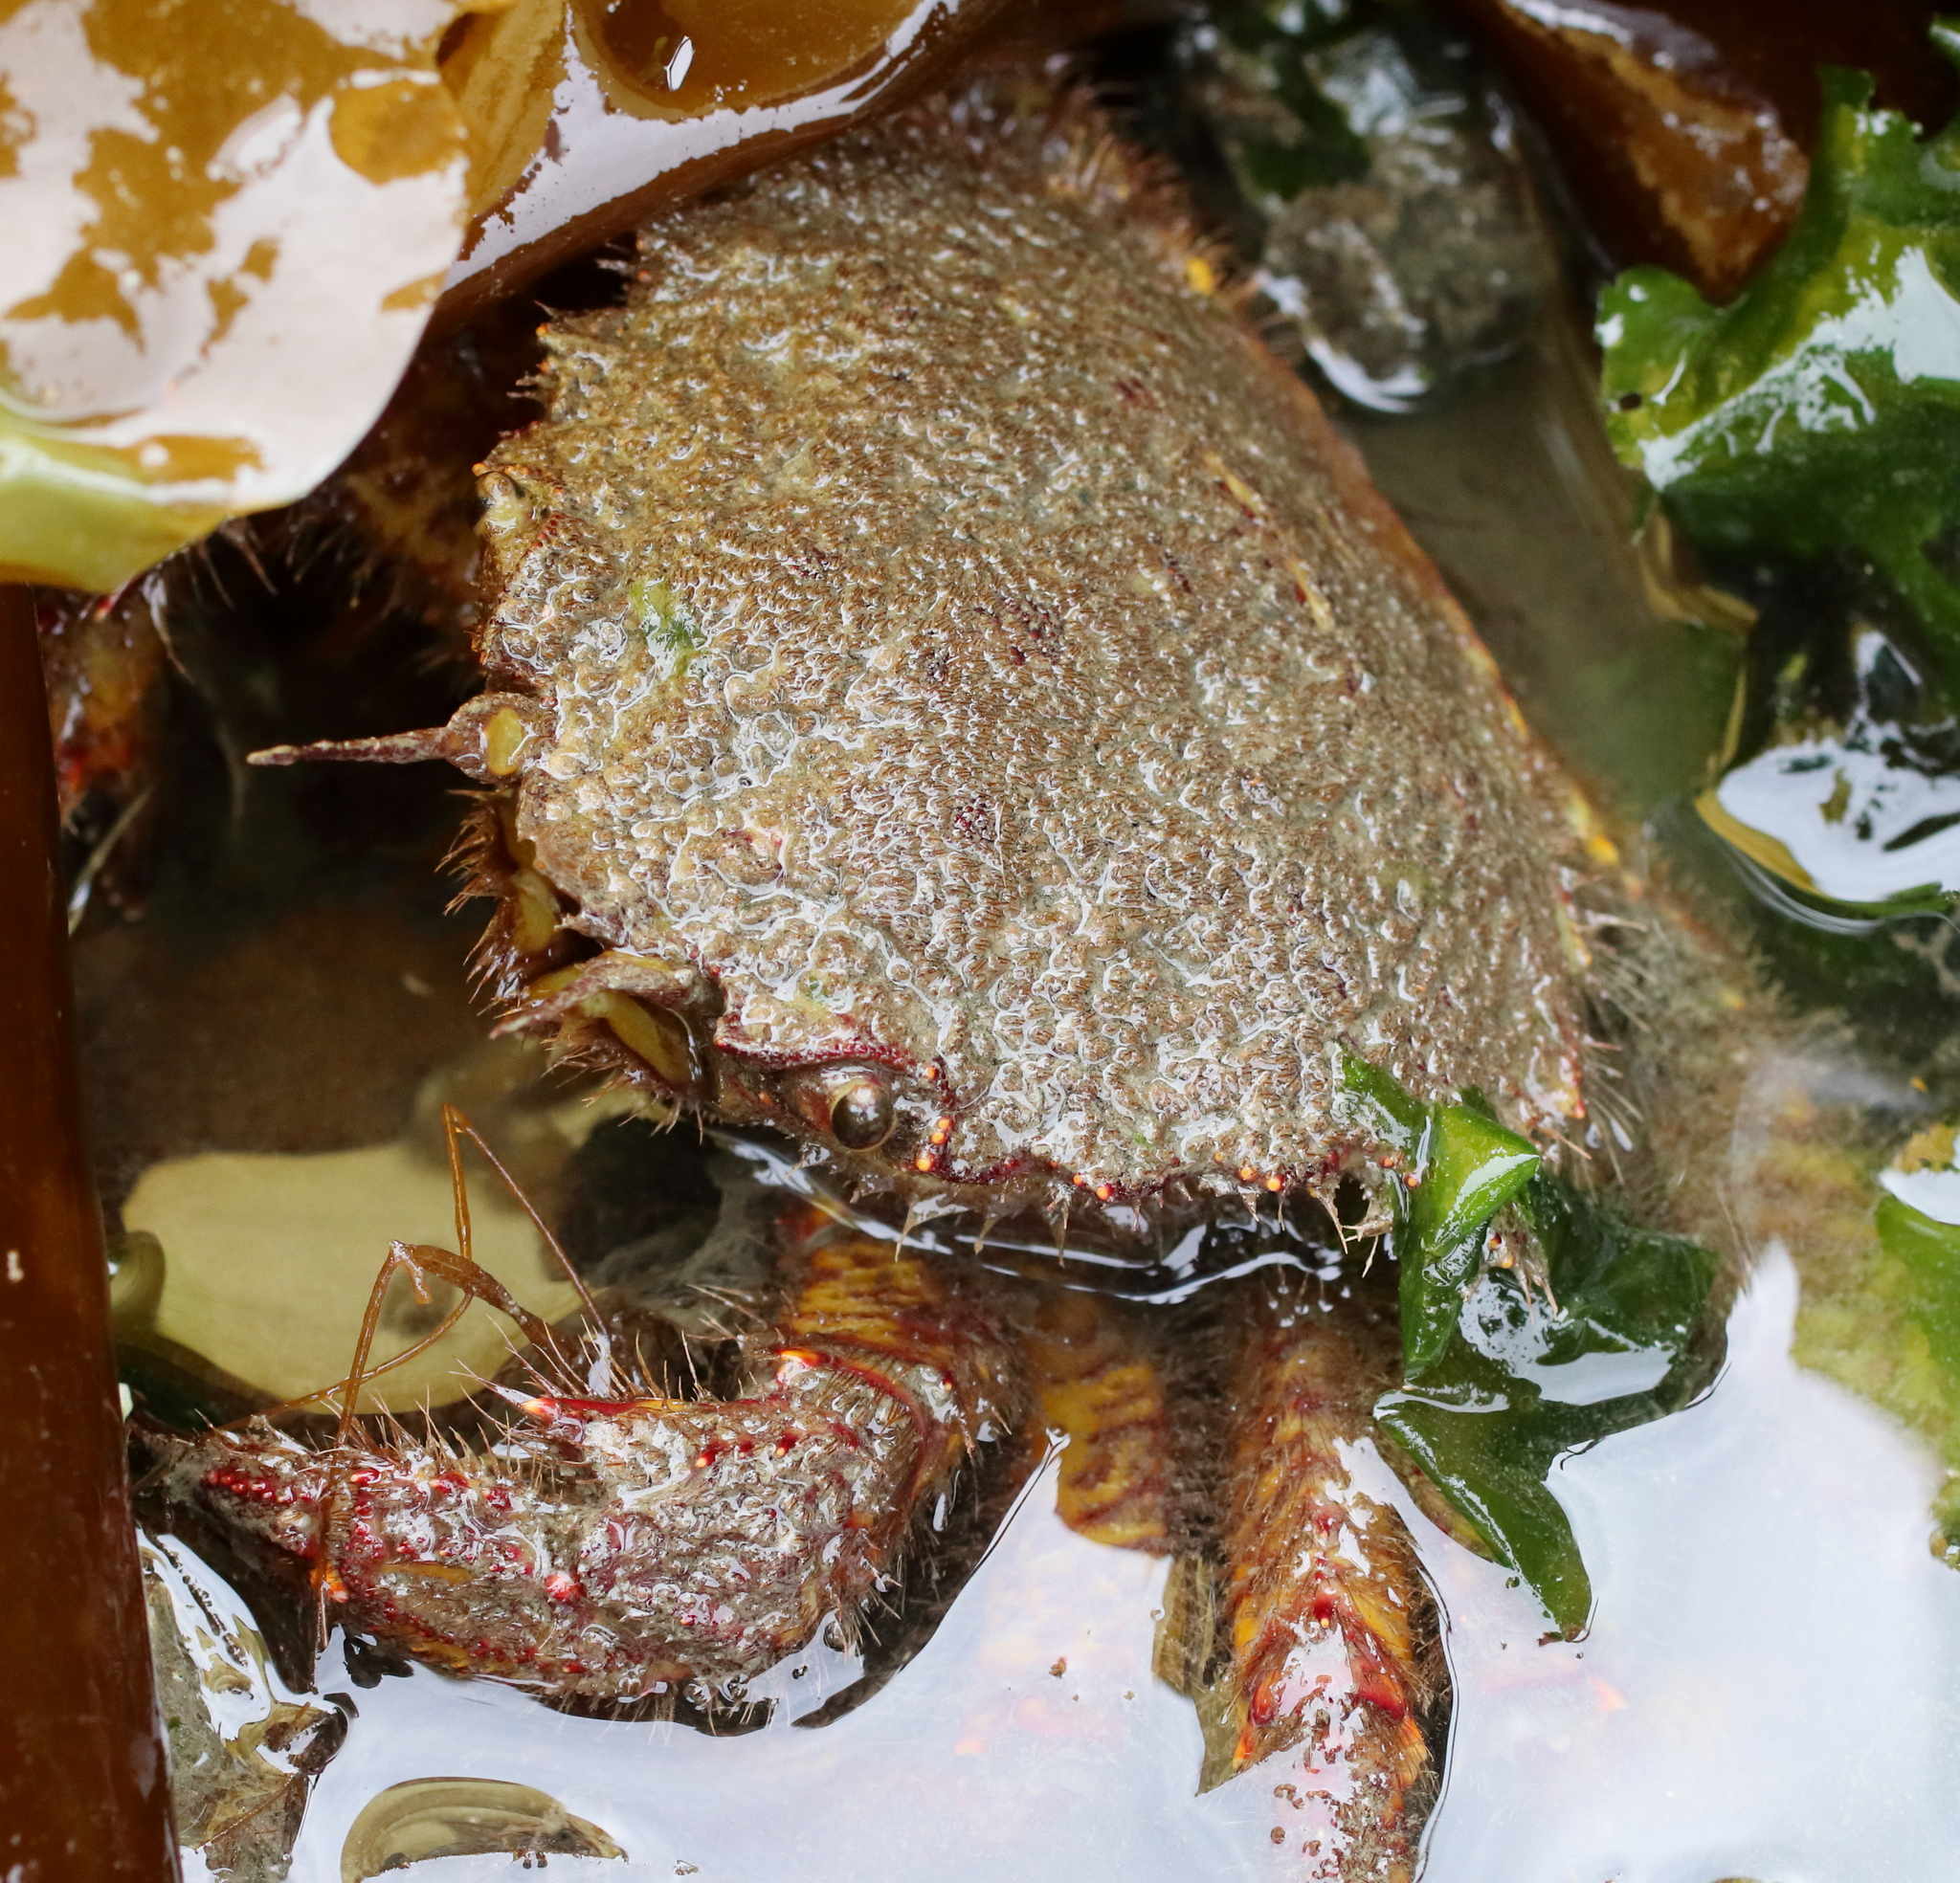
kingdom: Animalia
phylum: Arthropoda
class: Malacostraca
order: Decapoda
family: Cheiragonidae
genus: Telmessus
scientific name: Telmessus cheiragonus
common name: Helmet crab
